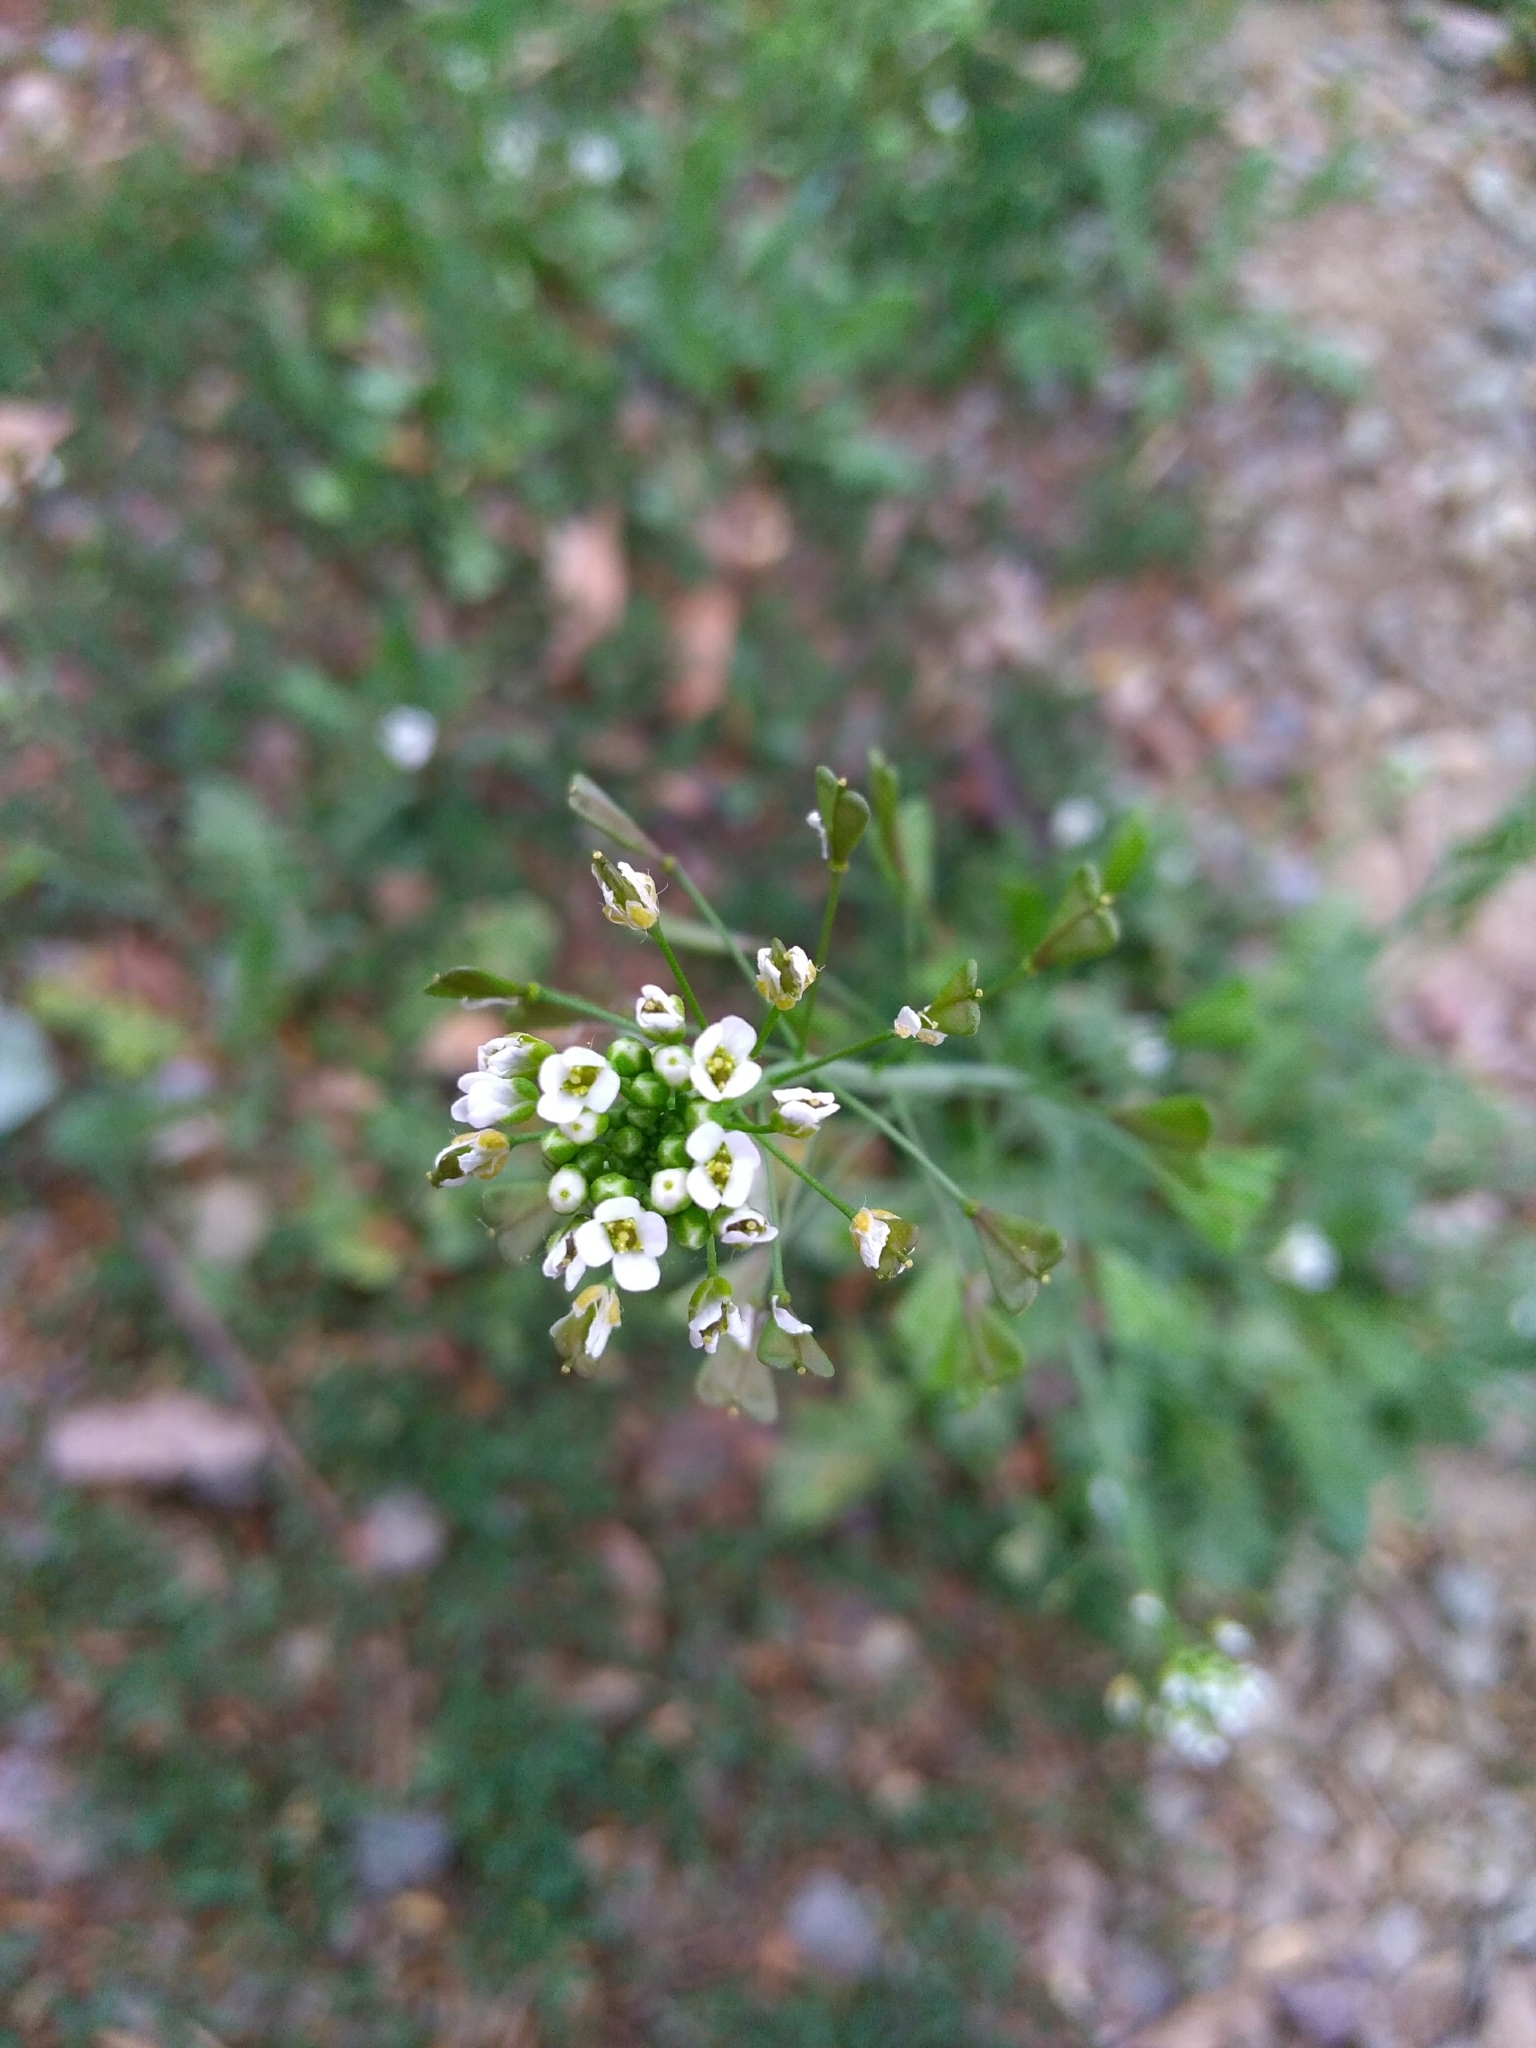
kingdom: Plantae
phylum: Tracheophyta
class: Magnoliopsida
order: Brassicales
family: Brassicaceae
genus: Capsella
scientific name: Capsella bursa-pastoris
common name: Shepherd's purse
